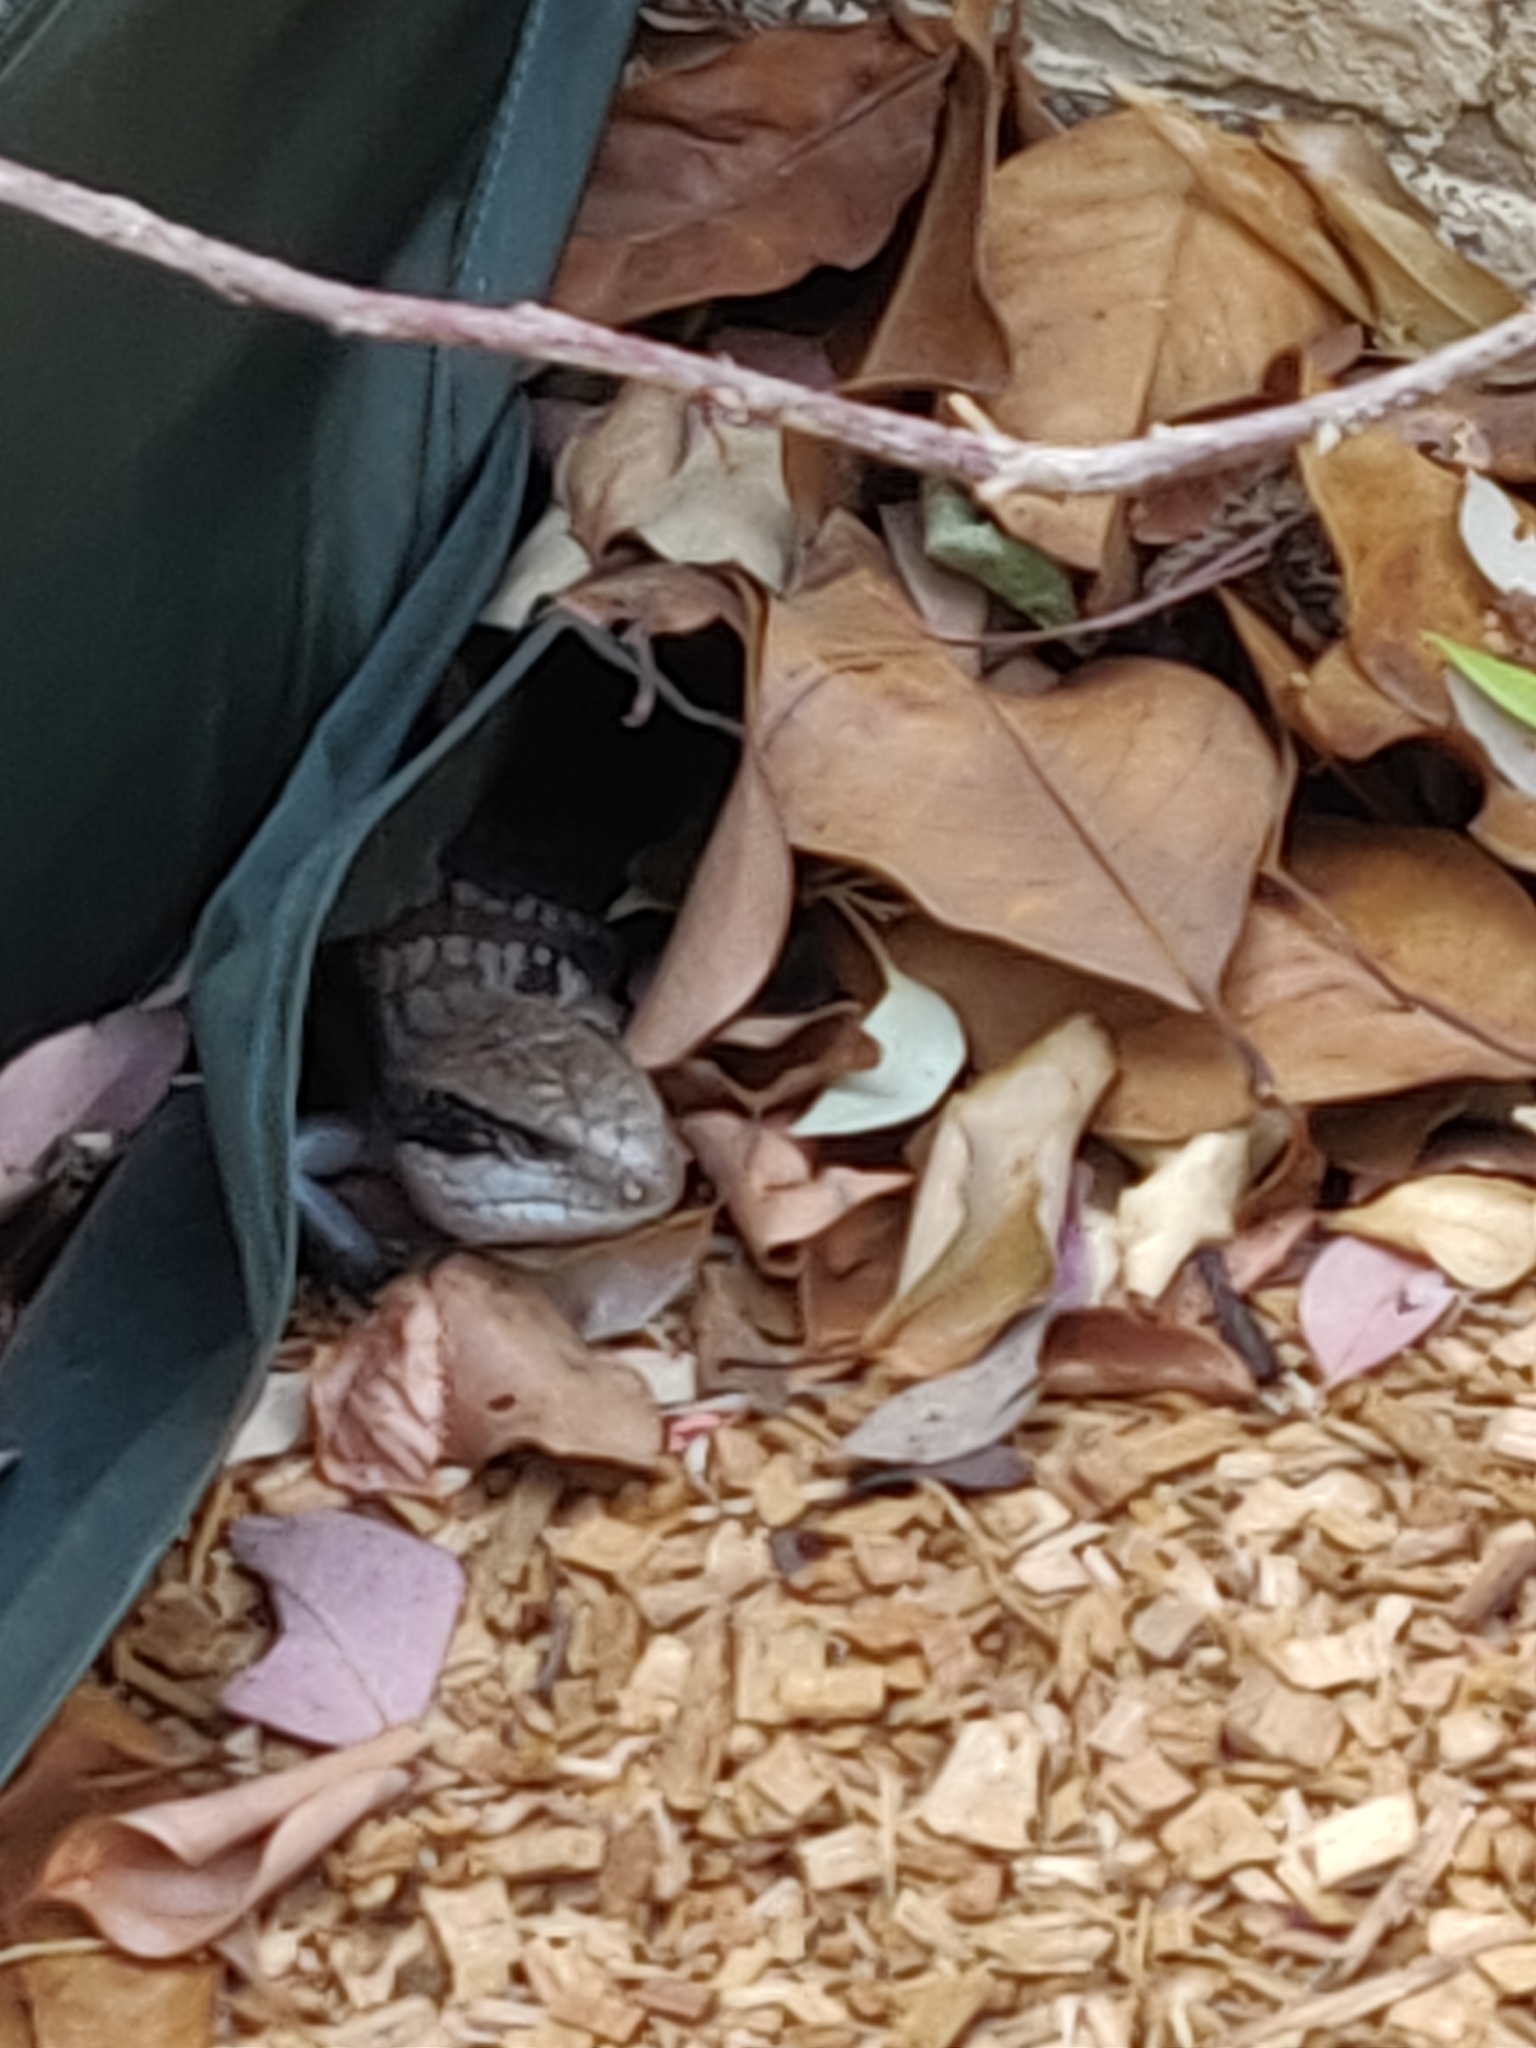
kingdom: Animalia
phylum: Chordata
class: Squamata
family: Scincidae
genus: Tiliqua
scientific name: Tiliqua scincoides
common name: Common bluetongue
